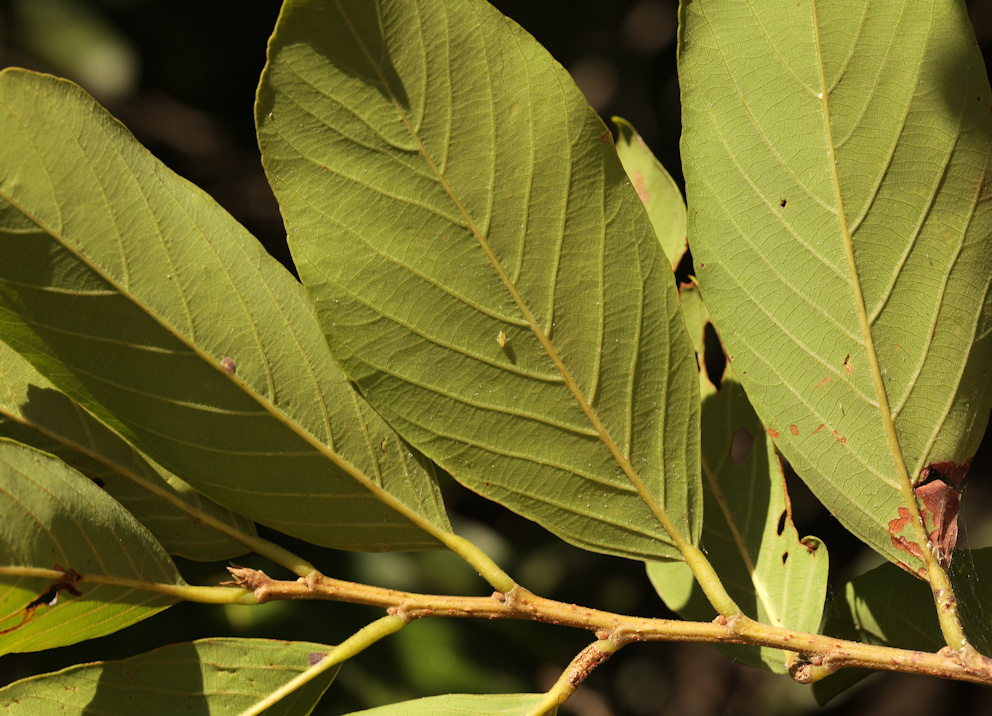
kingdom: Plantae
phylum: Tracheophyta
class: Magnoliopsida
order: Malpighiales
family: Phyllanthaceae
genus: Bridelia
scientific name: Bridelia micrantha
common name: Bridelia
